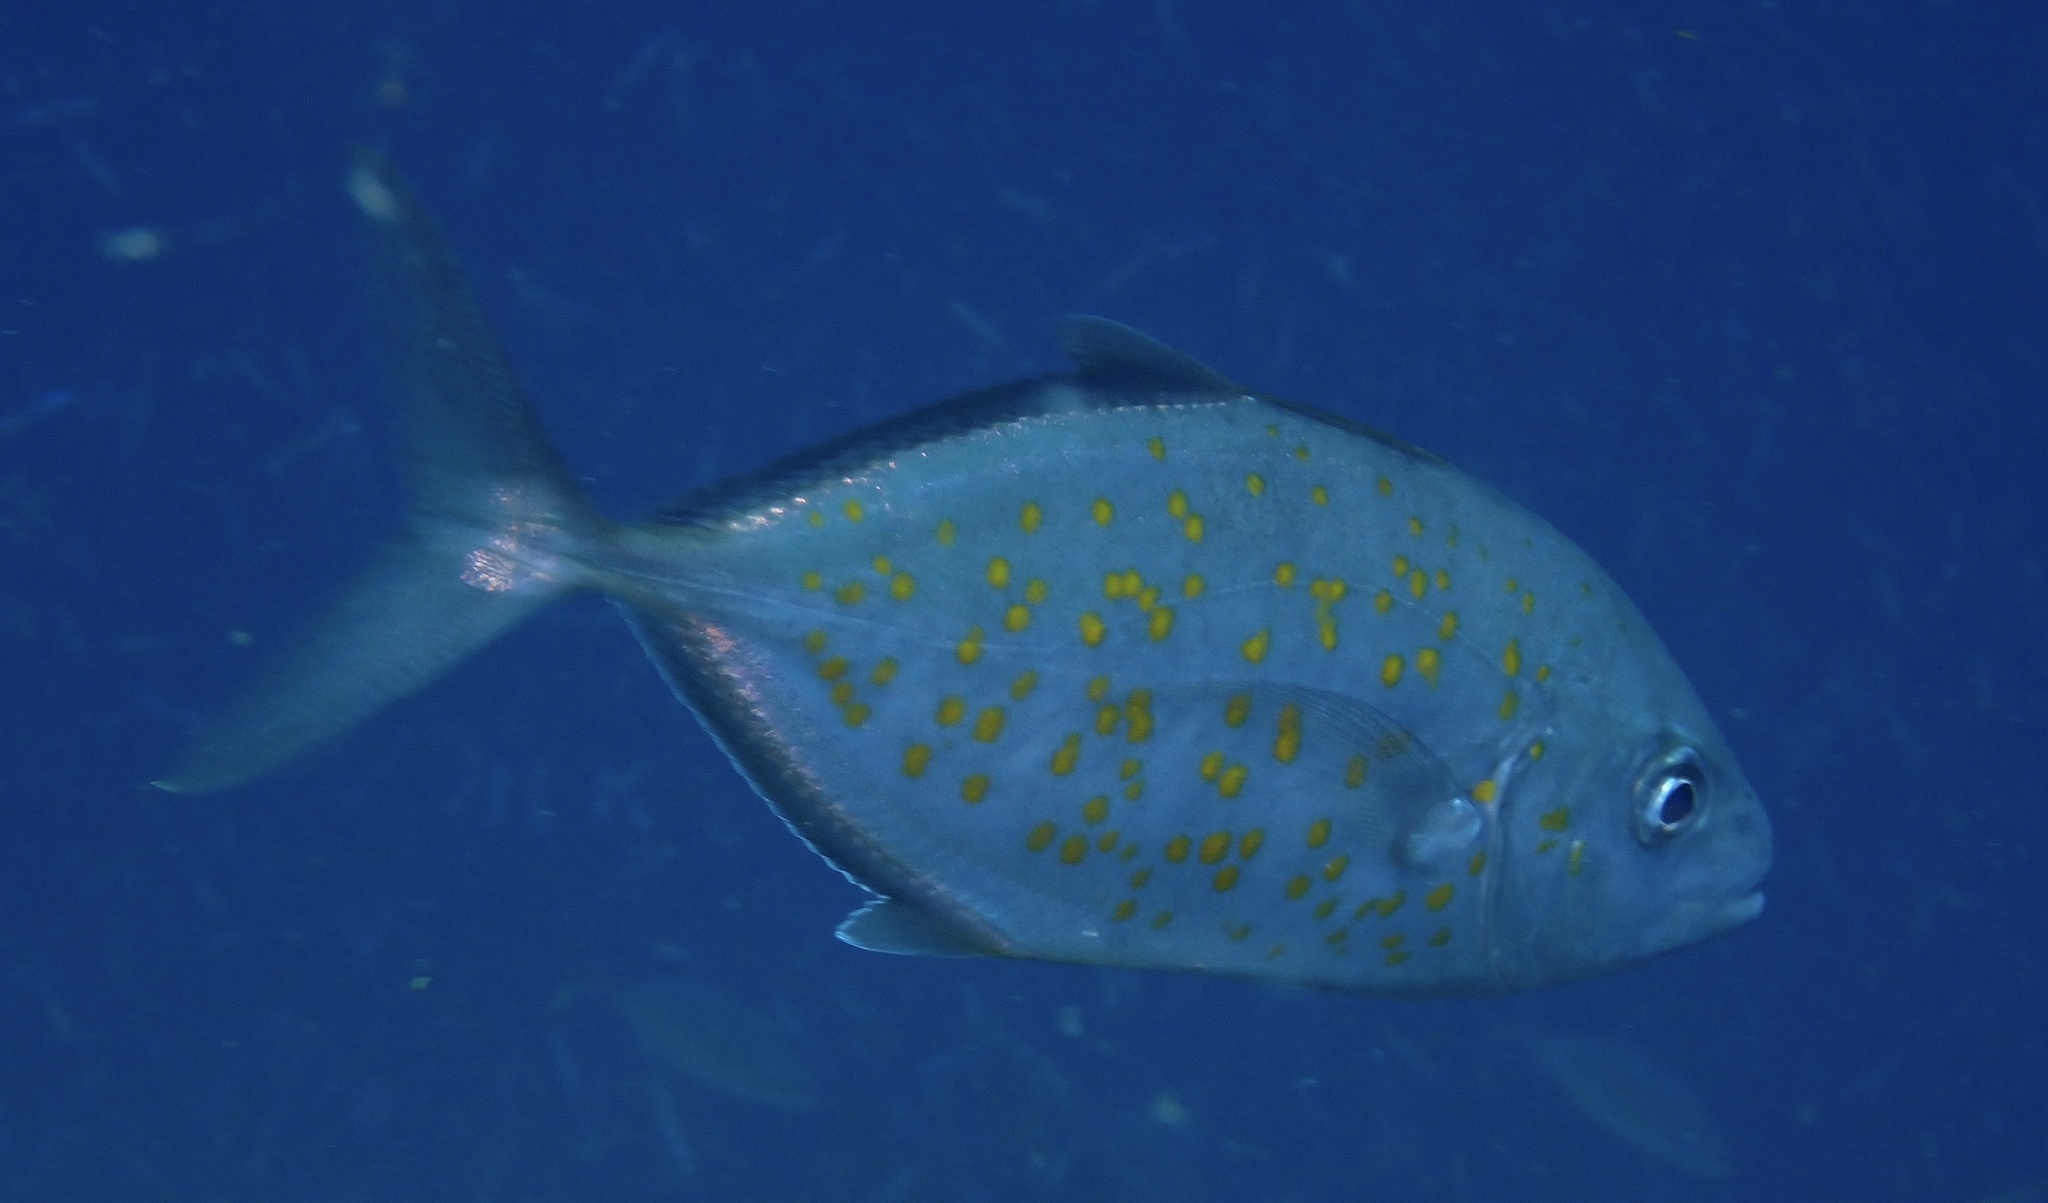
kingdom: Animalia
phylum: Chordata
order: Perciformes
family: Carangidae
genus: Flavocaranx
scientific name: Flavocaranx bajad
